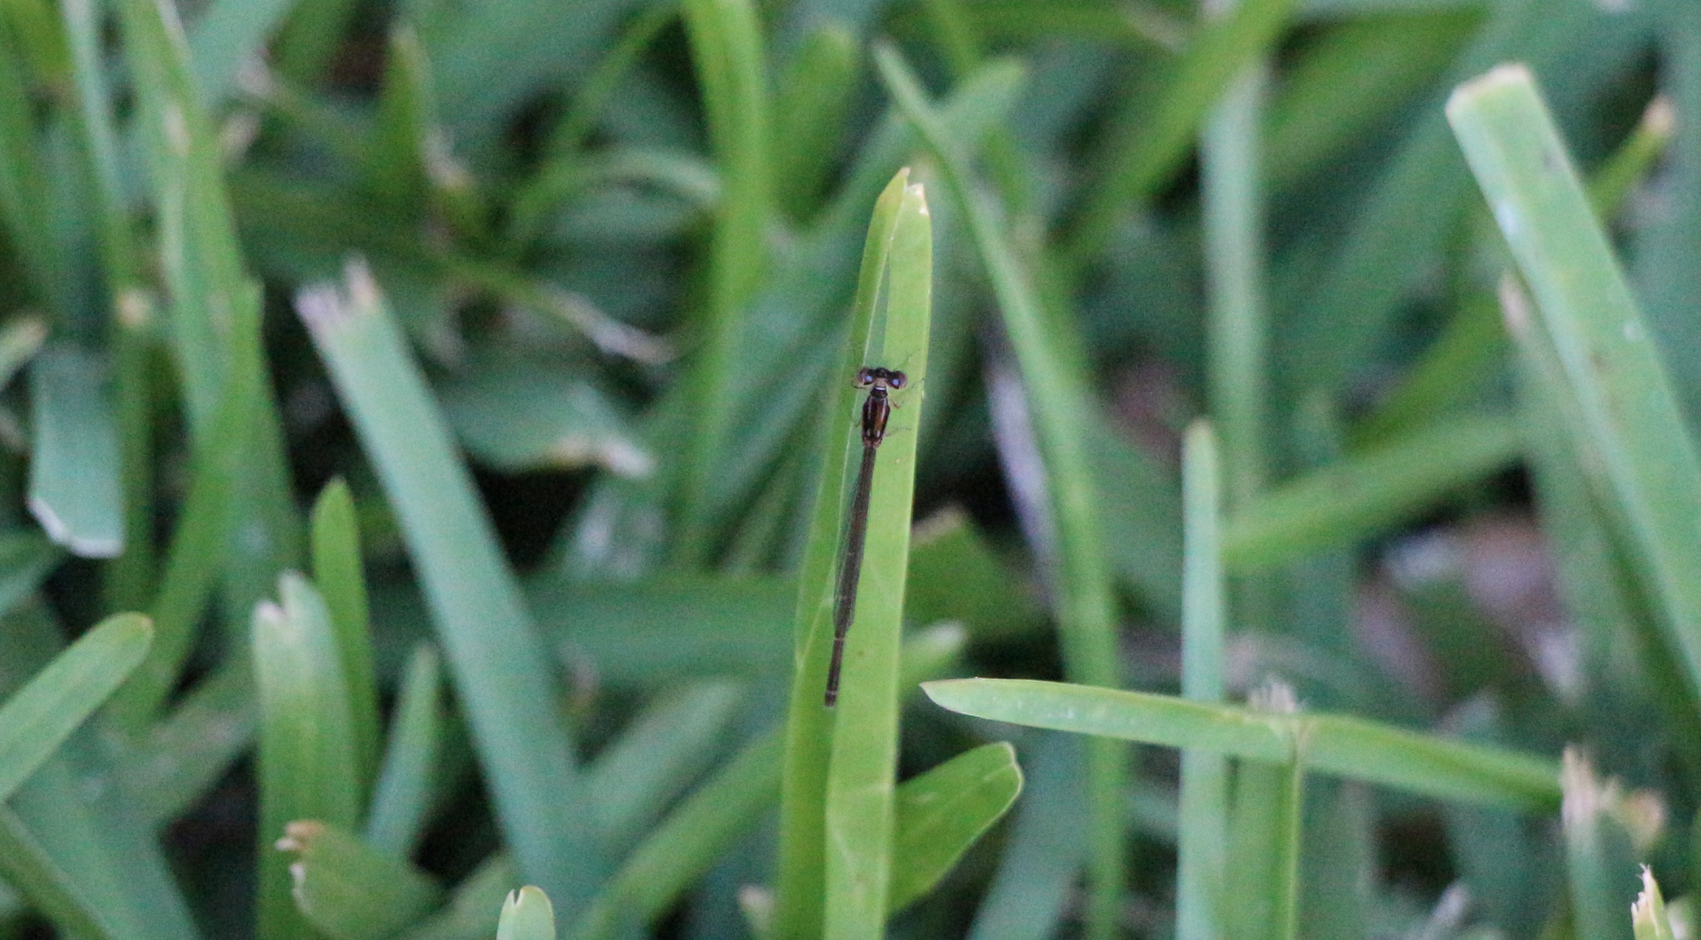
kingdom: Animalia
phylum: Arthropoda
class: Insecta
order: Odonata
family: Coenagrionidae
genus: Ischnura
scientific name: Ischnura posita
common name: Fragile forktail
